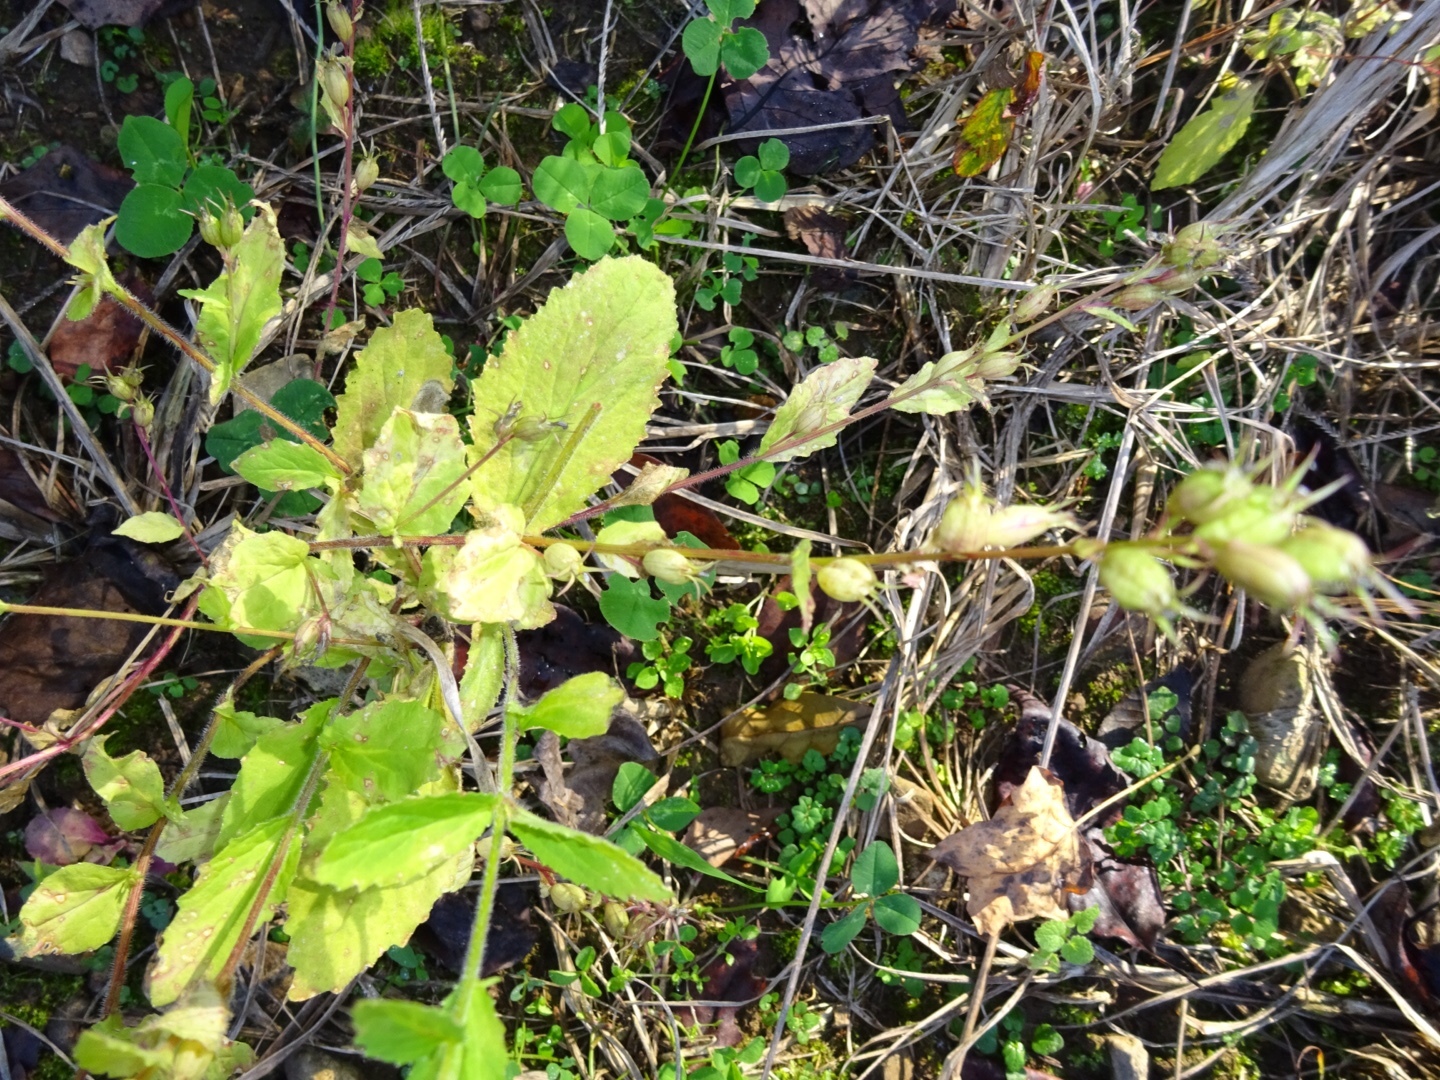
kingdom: Plantae
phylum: Tracheophyta
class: Magnoliopsida
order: Asterales
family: Campanulaceae
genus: Lobelia
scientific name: Lobelia inflata
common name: Indian tobacco
